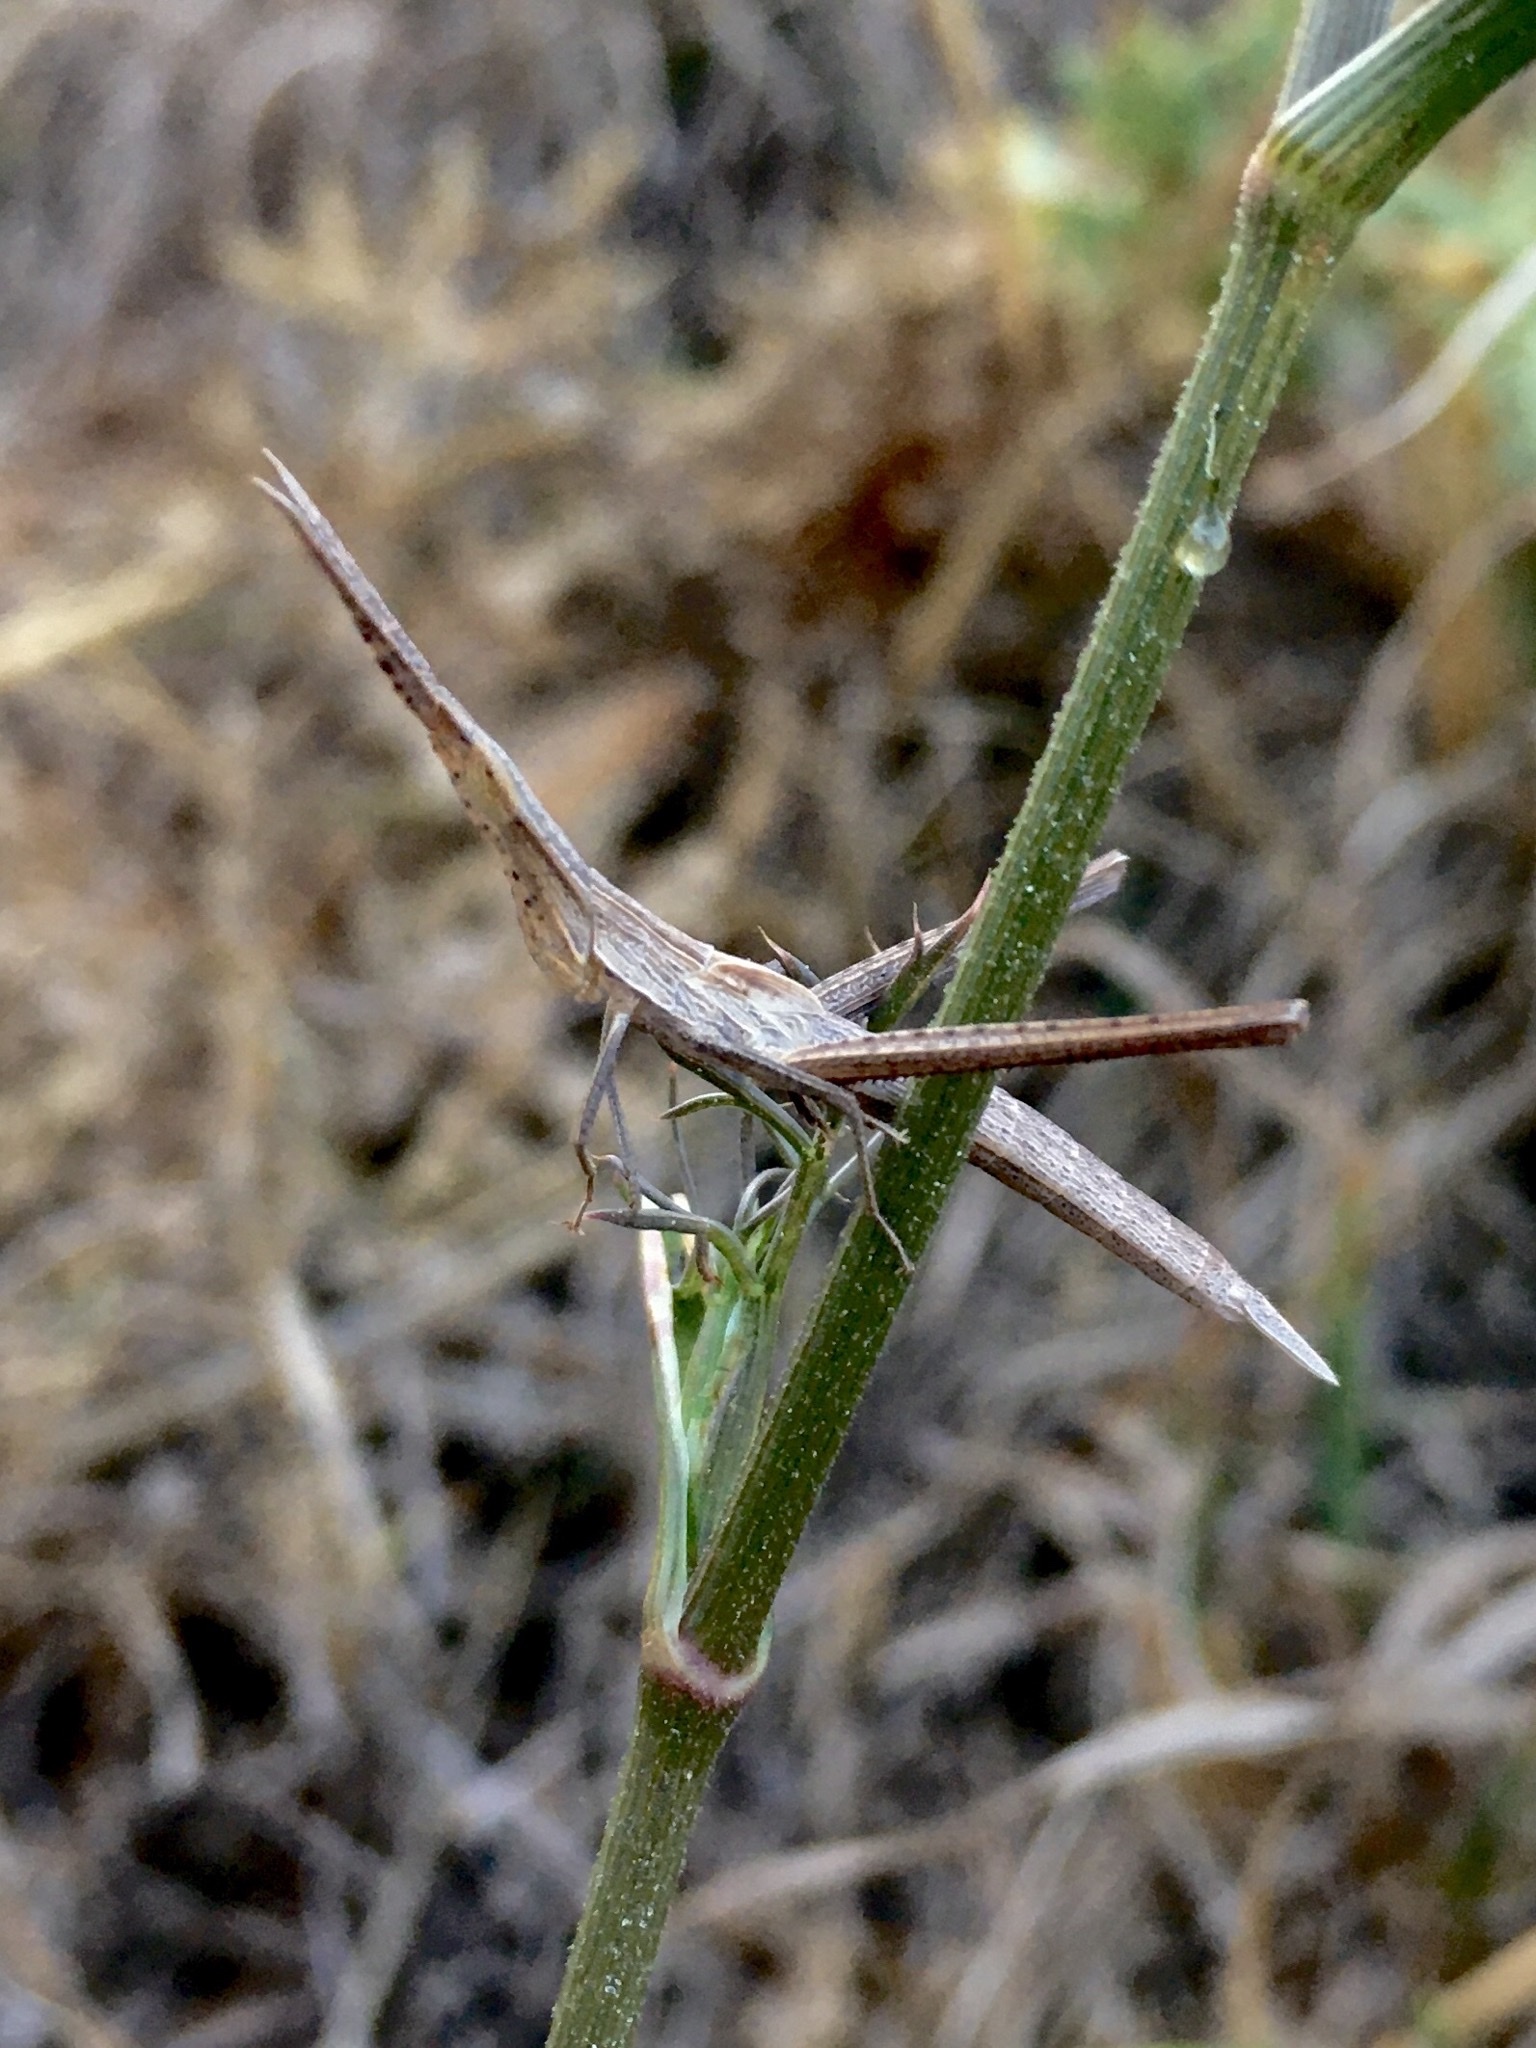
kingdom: Animalia
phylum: Arthropoda
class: Insecta
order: Orthoptera
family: Acrididae
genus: Acrida
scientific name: Acrida ungarica
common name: Common cone-headed grasshopper
